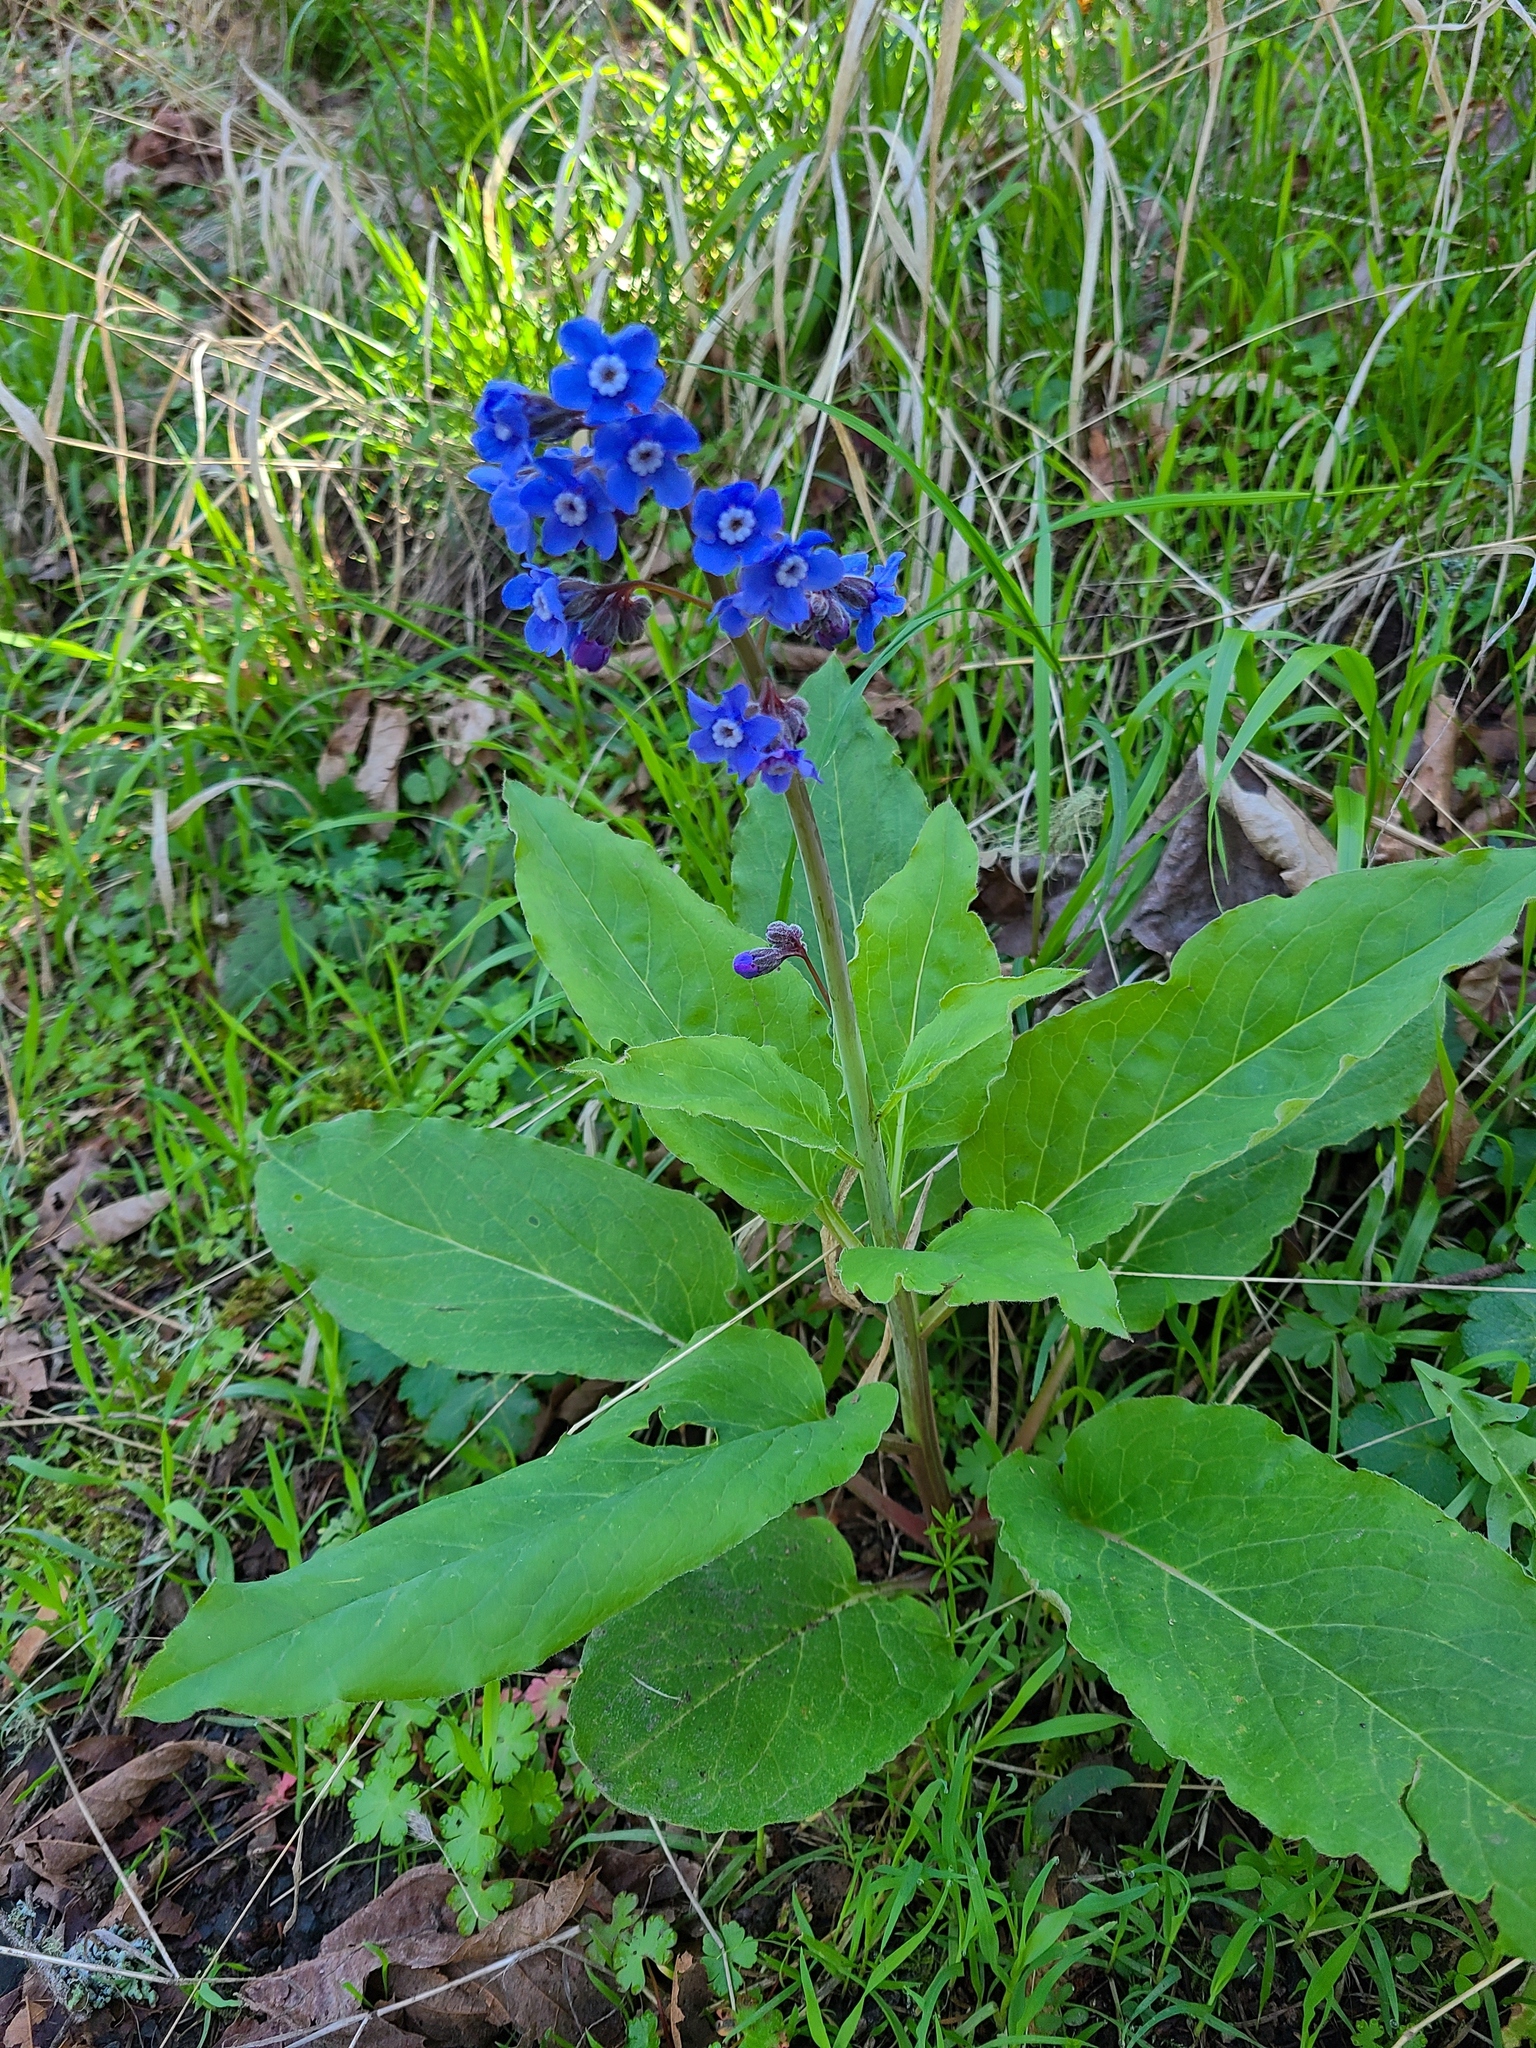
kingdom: Plantae
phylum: Tracheophyta
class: Magnoliopsida
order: Boraginales
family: Boraginaceae
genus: Adelinia
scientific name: Adelinia grande
